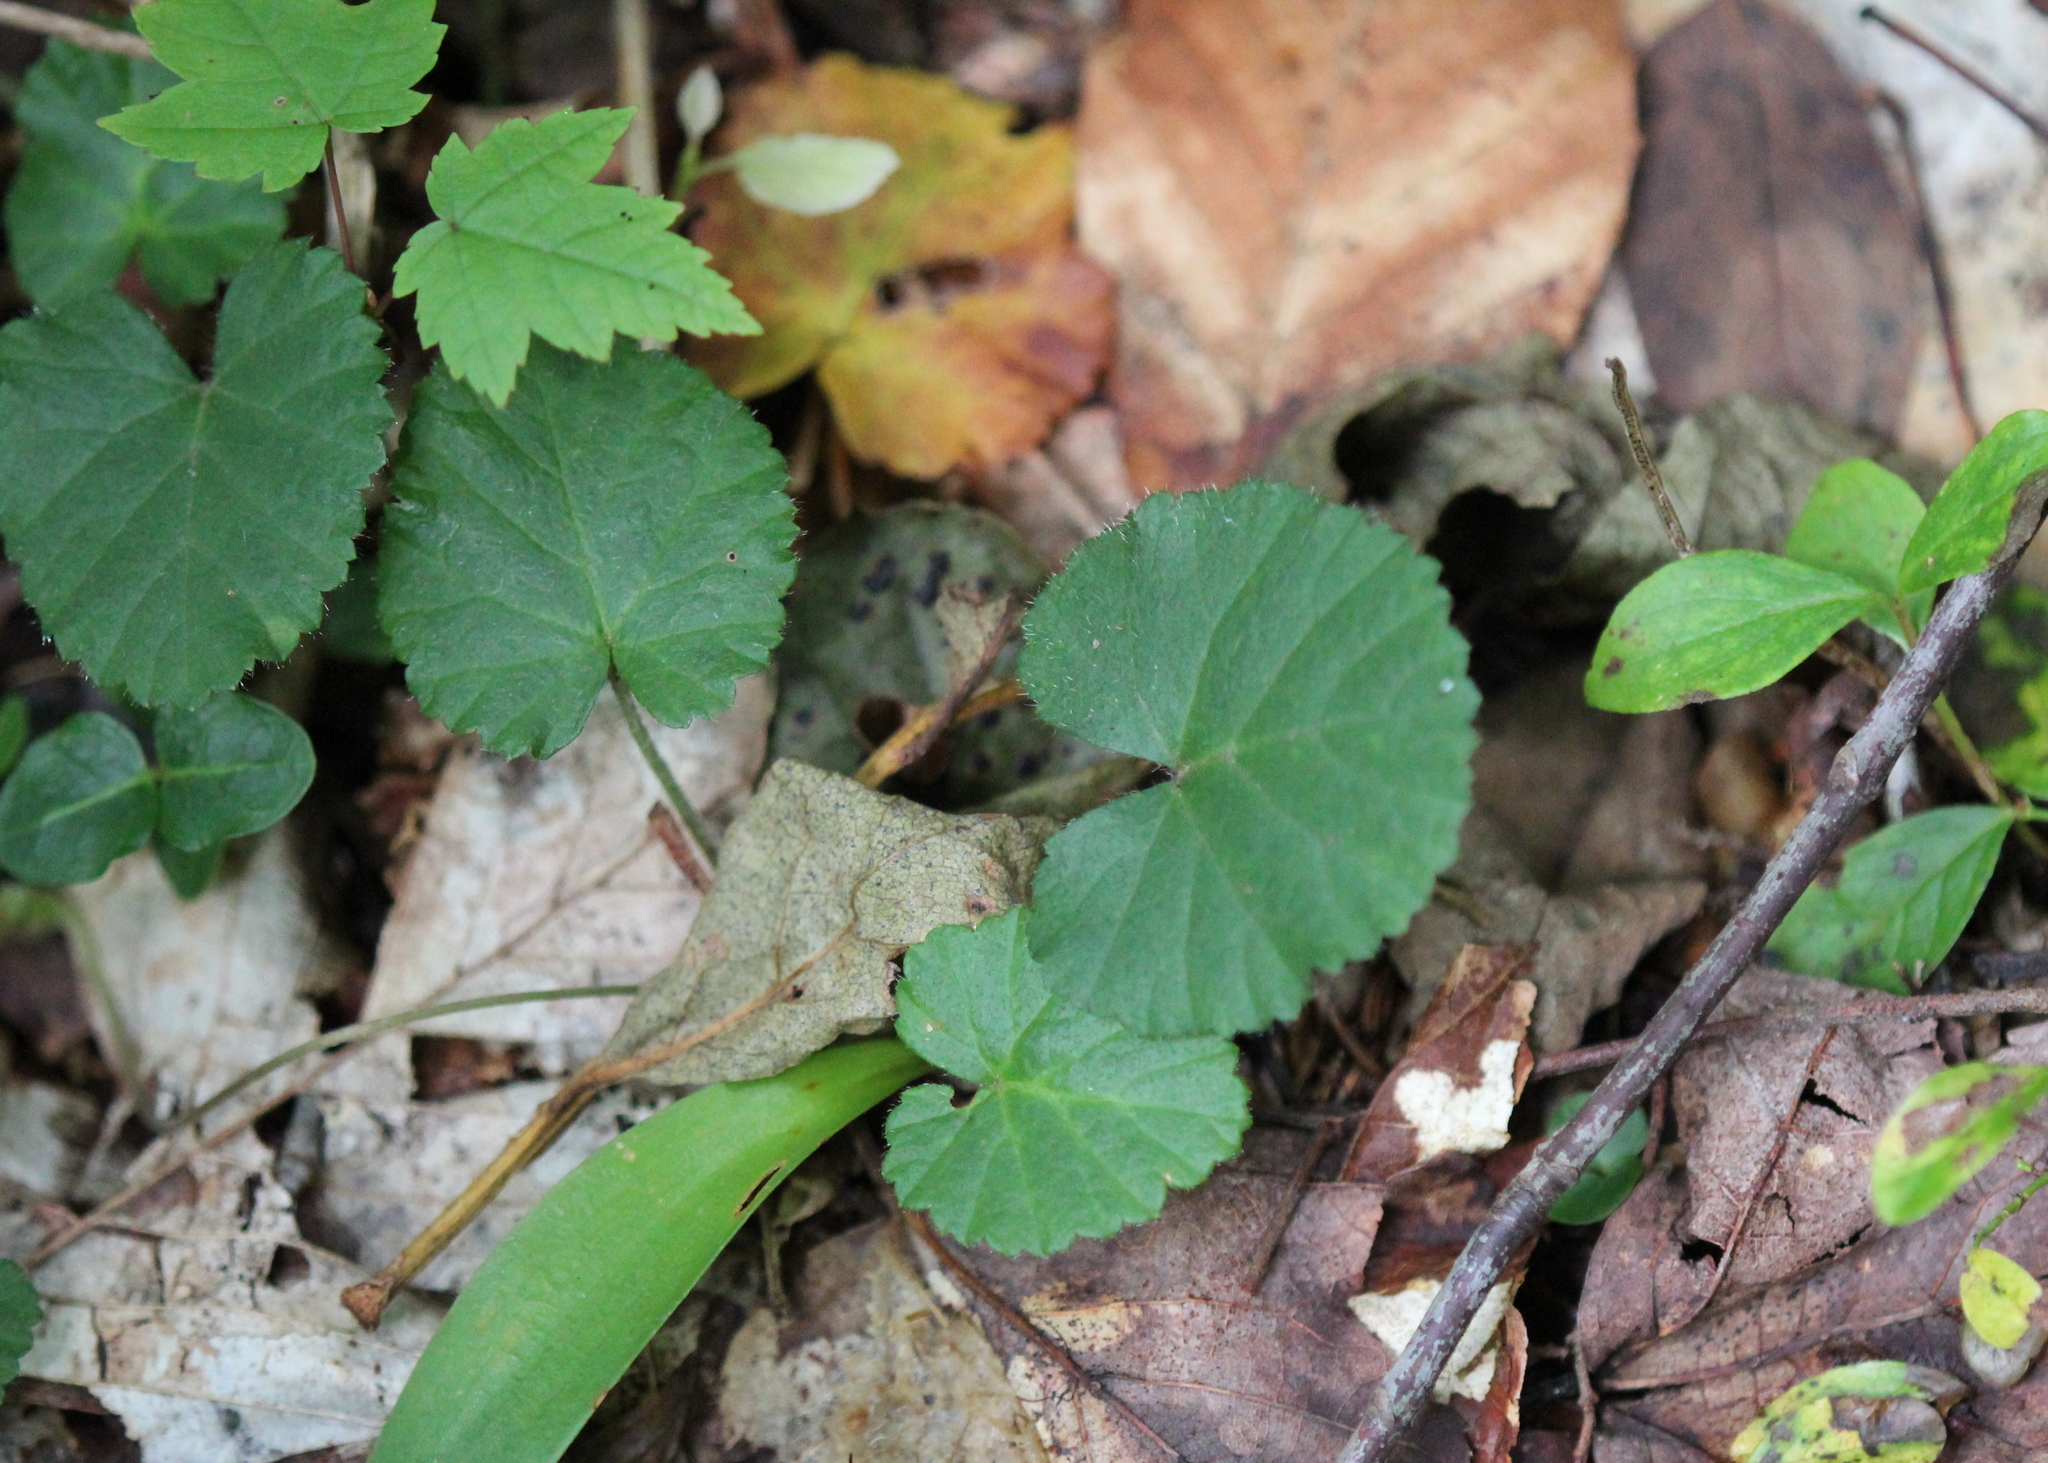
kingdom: Plantae
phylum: Tracheophyta
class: Magnoliopsida
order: Rosales
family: Rosaceae
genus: Dalibarda
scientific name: Dalibarda repens
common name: Dewdrop
